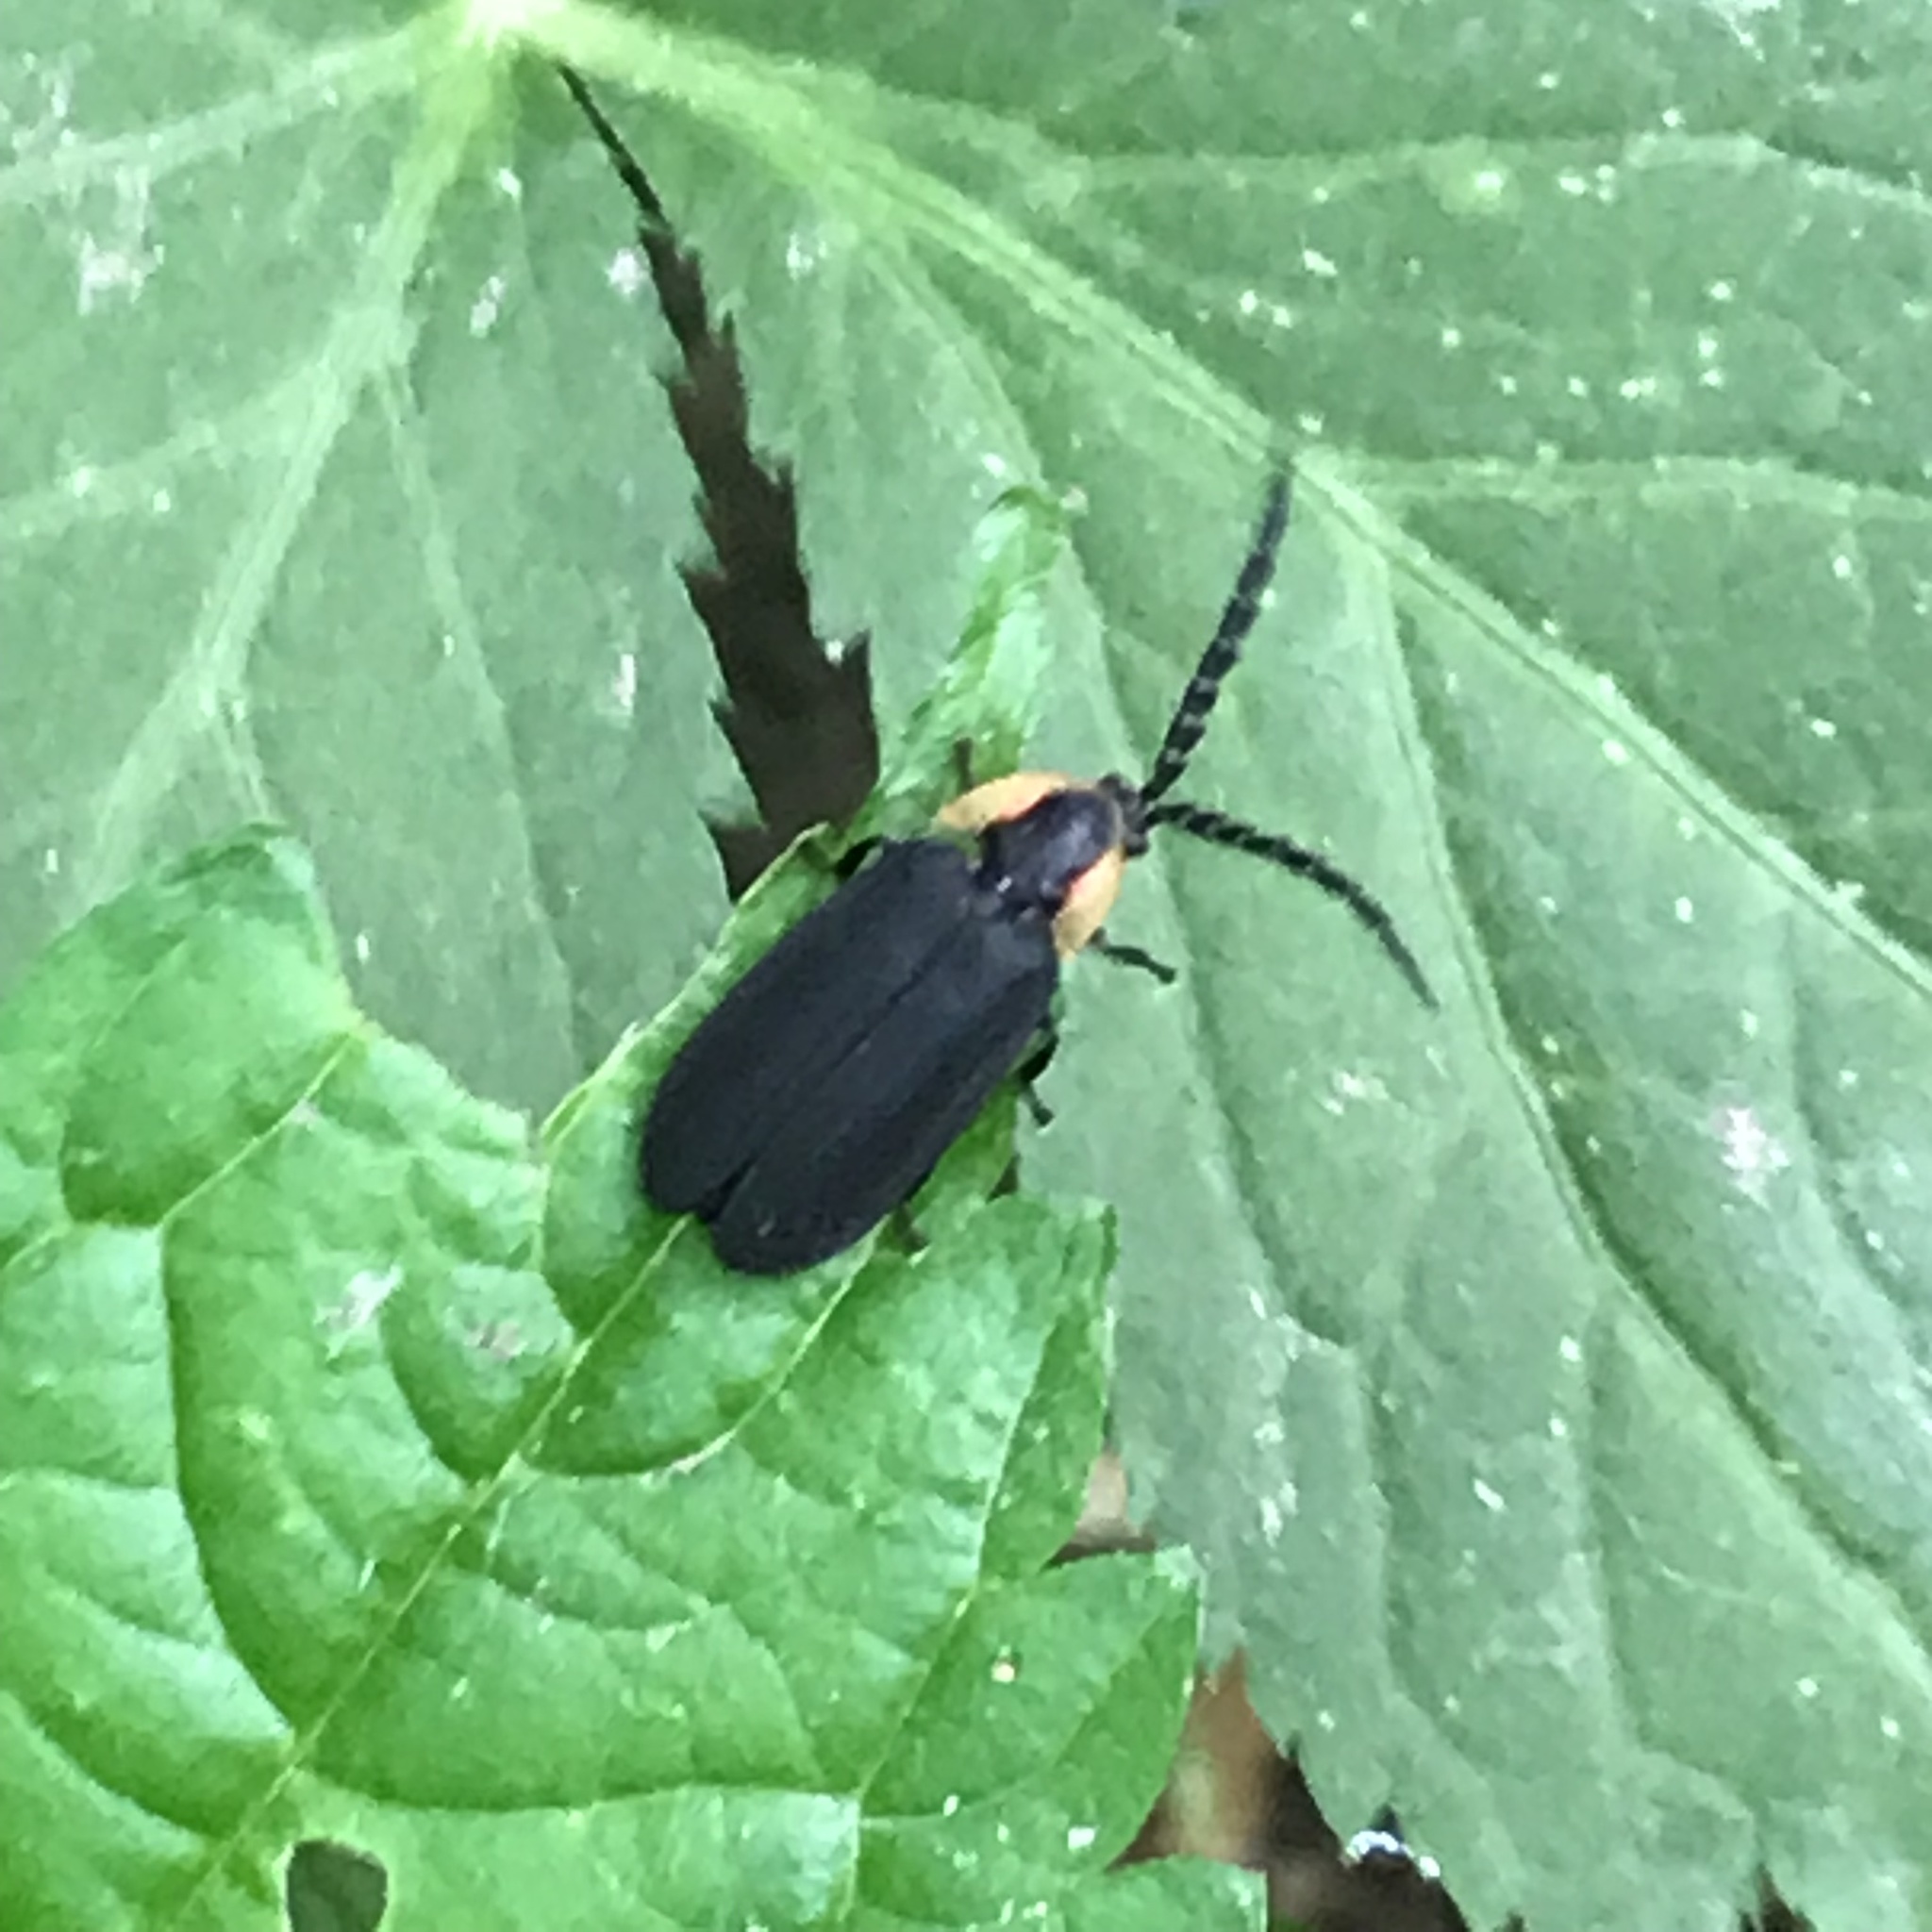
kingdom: Animalia
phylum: Arthropoda
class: Insecta
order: Coleoptera
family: Lampyridae
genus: Lucidota
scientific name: Lucidota atra
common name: Black firefly
